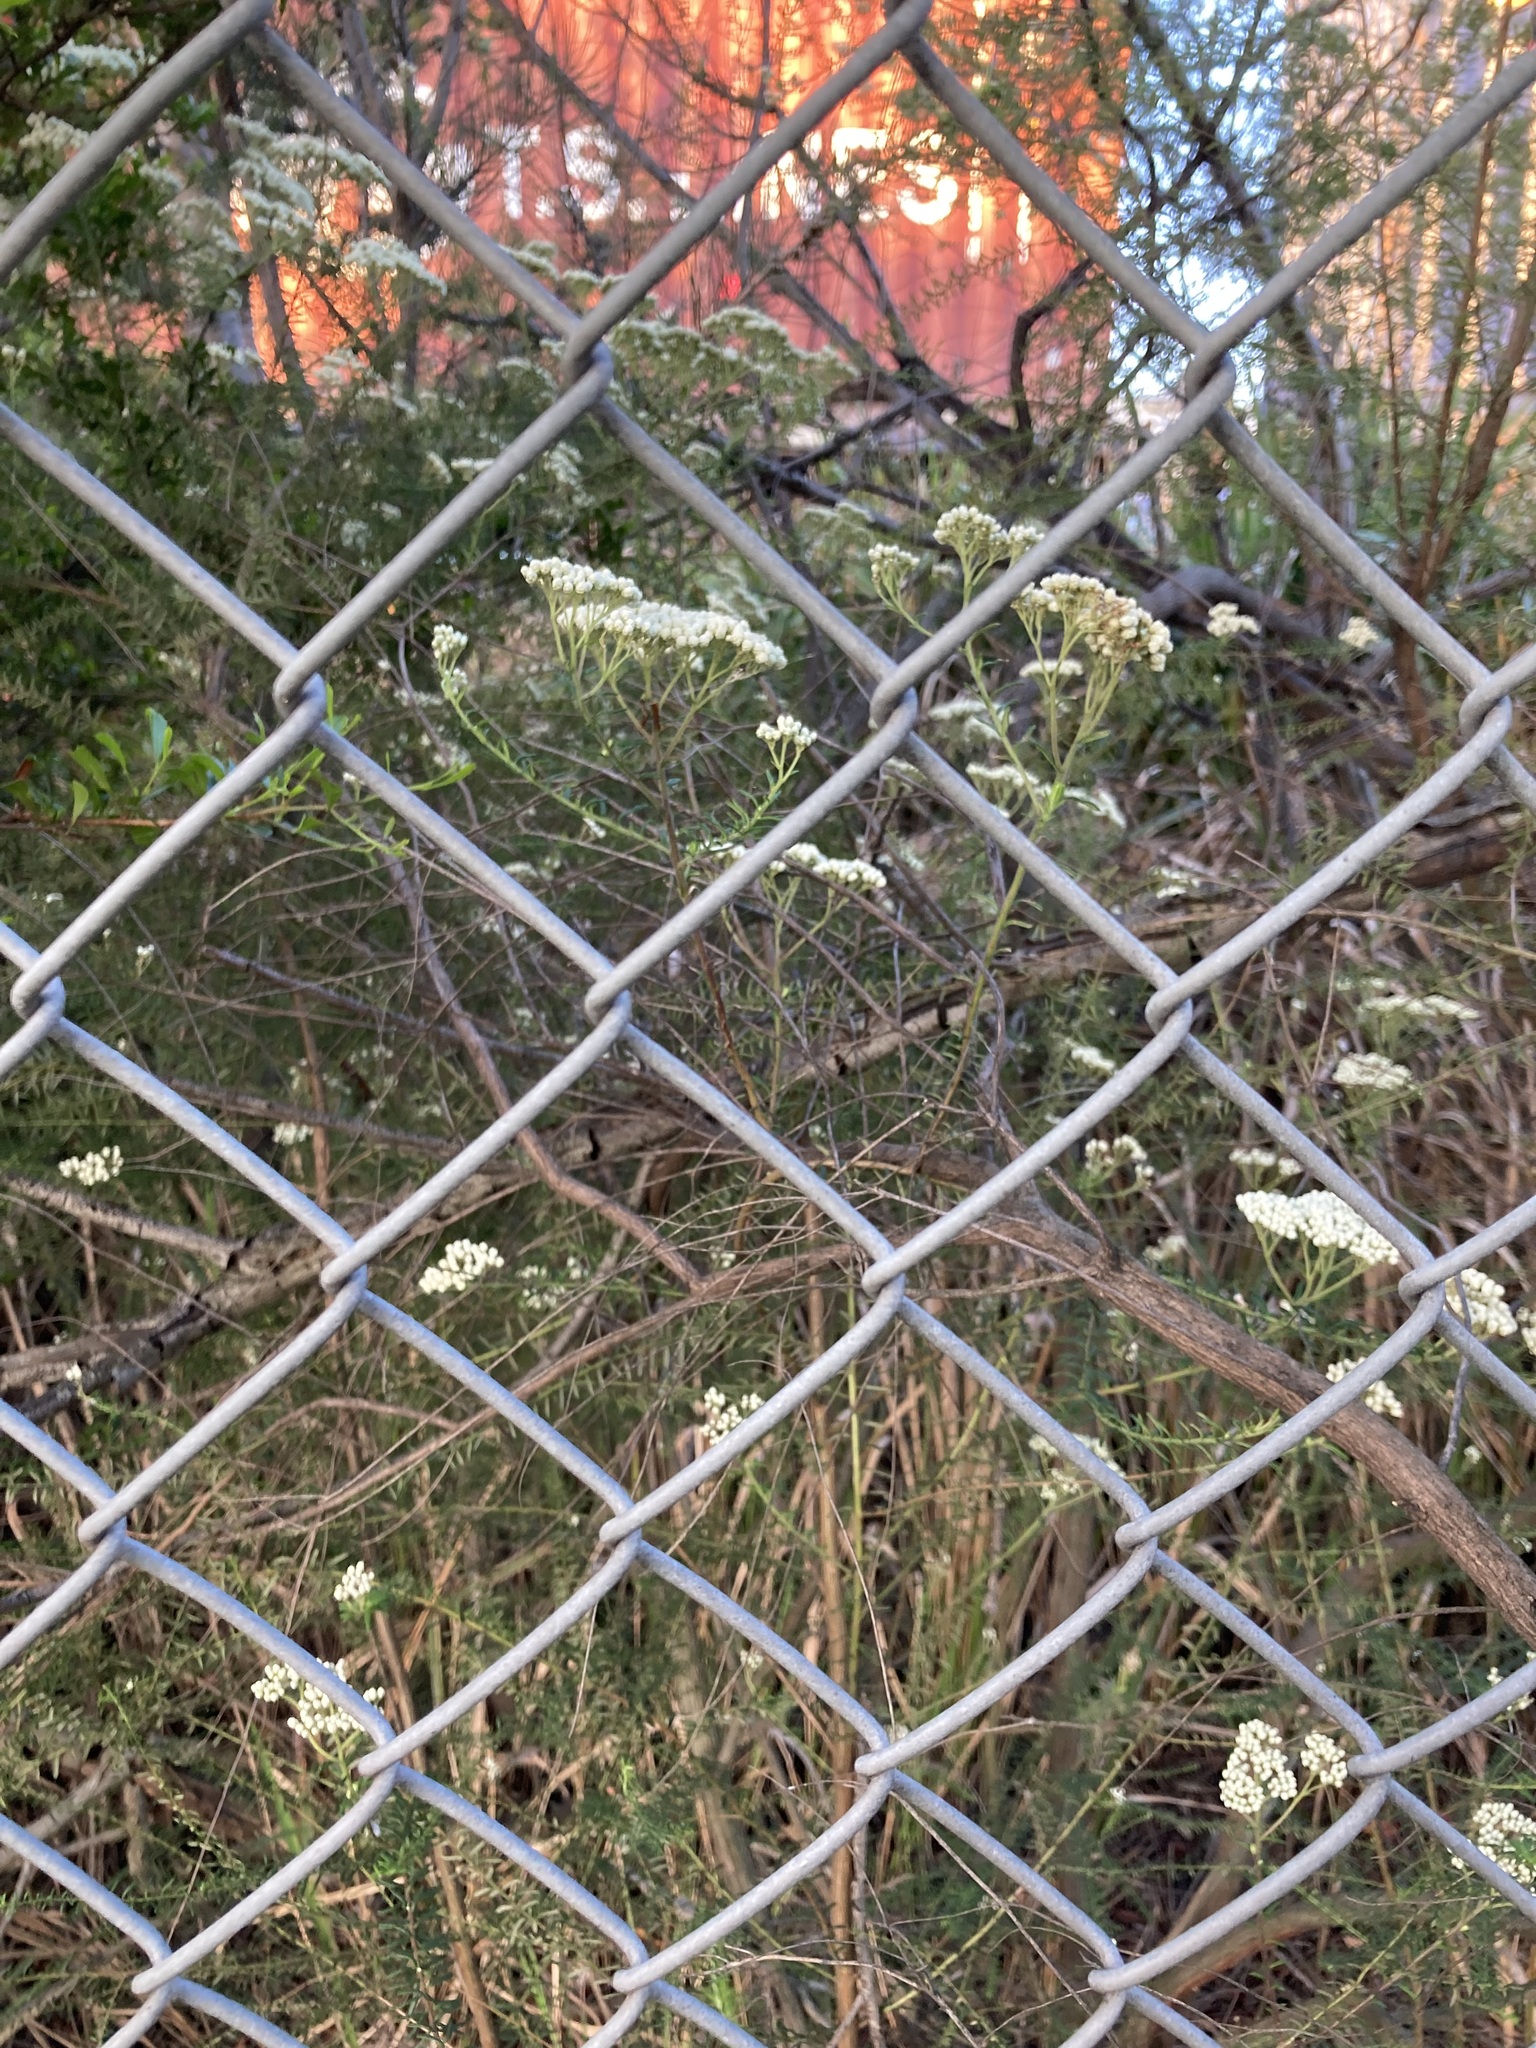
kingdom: Plantae
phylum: Tracheophyta
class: Magnoliopsida
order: Asterales
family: Asteraceae
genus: Ozothamnus
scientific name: Ozothamnus diosmifolius
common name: White-dogwood
